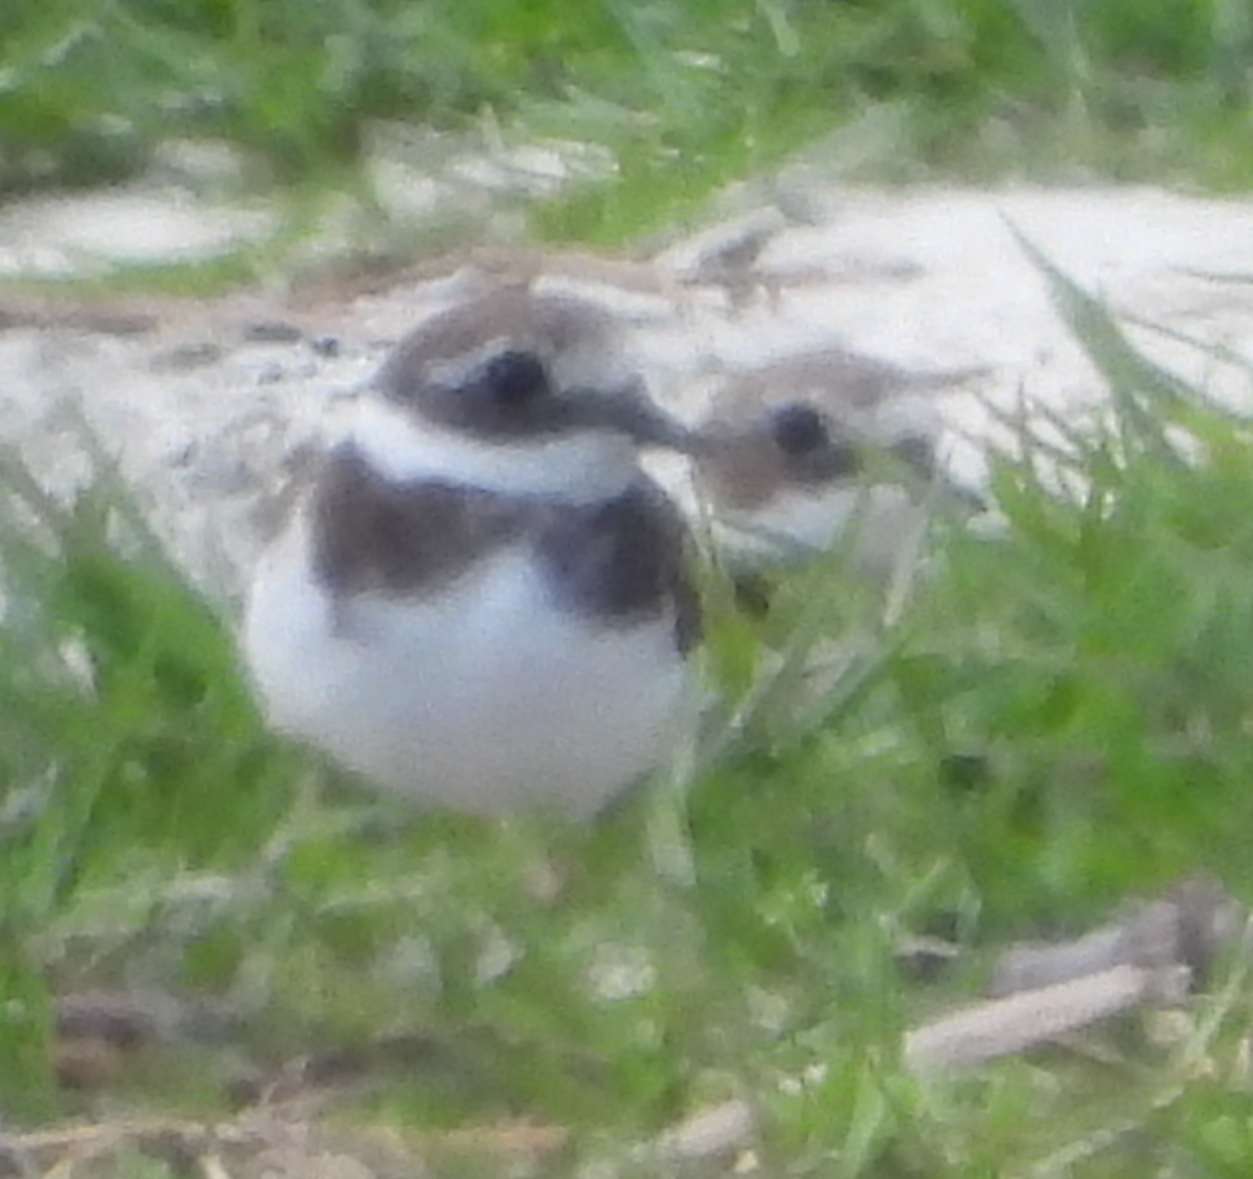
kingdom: Animalia
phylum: Chordata
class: Aves
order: Charadriiformes
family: Charadriidae
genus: Charadrius
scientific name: Charadrius hiaticula
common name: Common ringed plover
